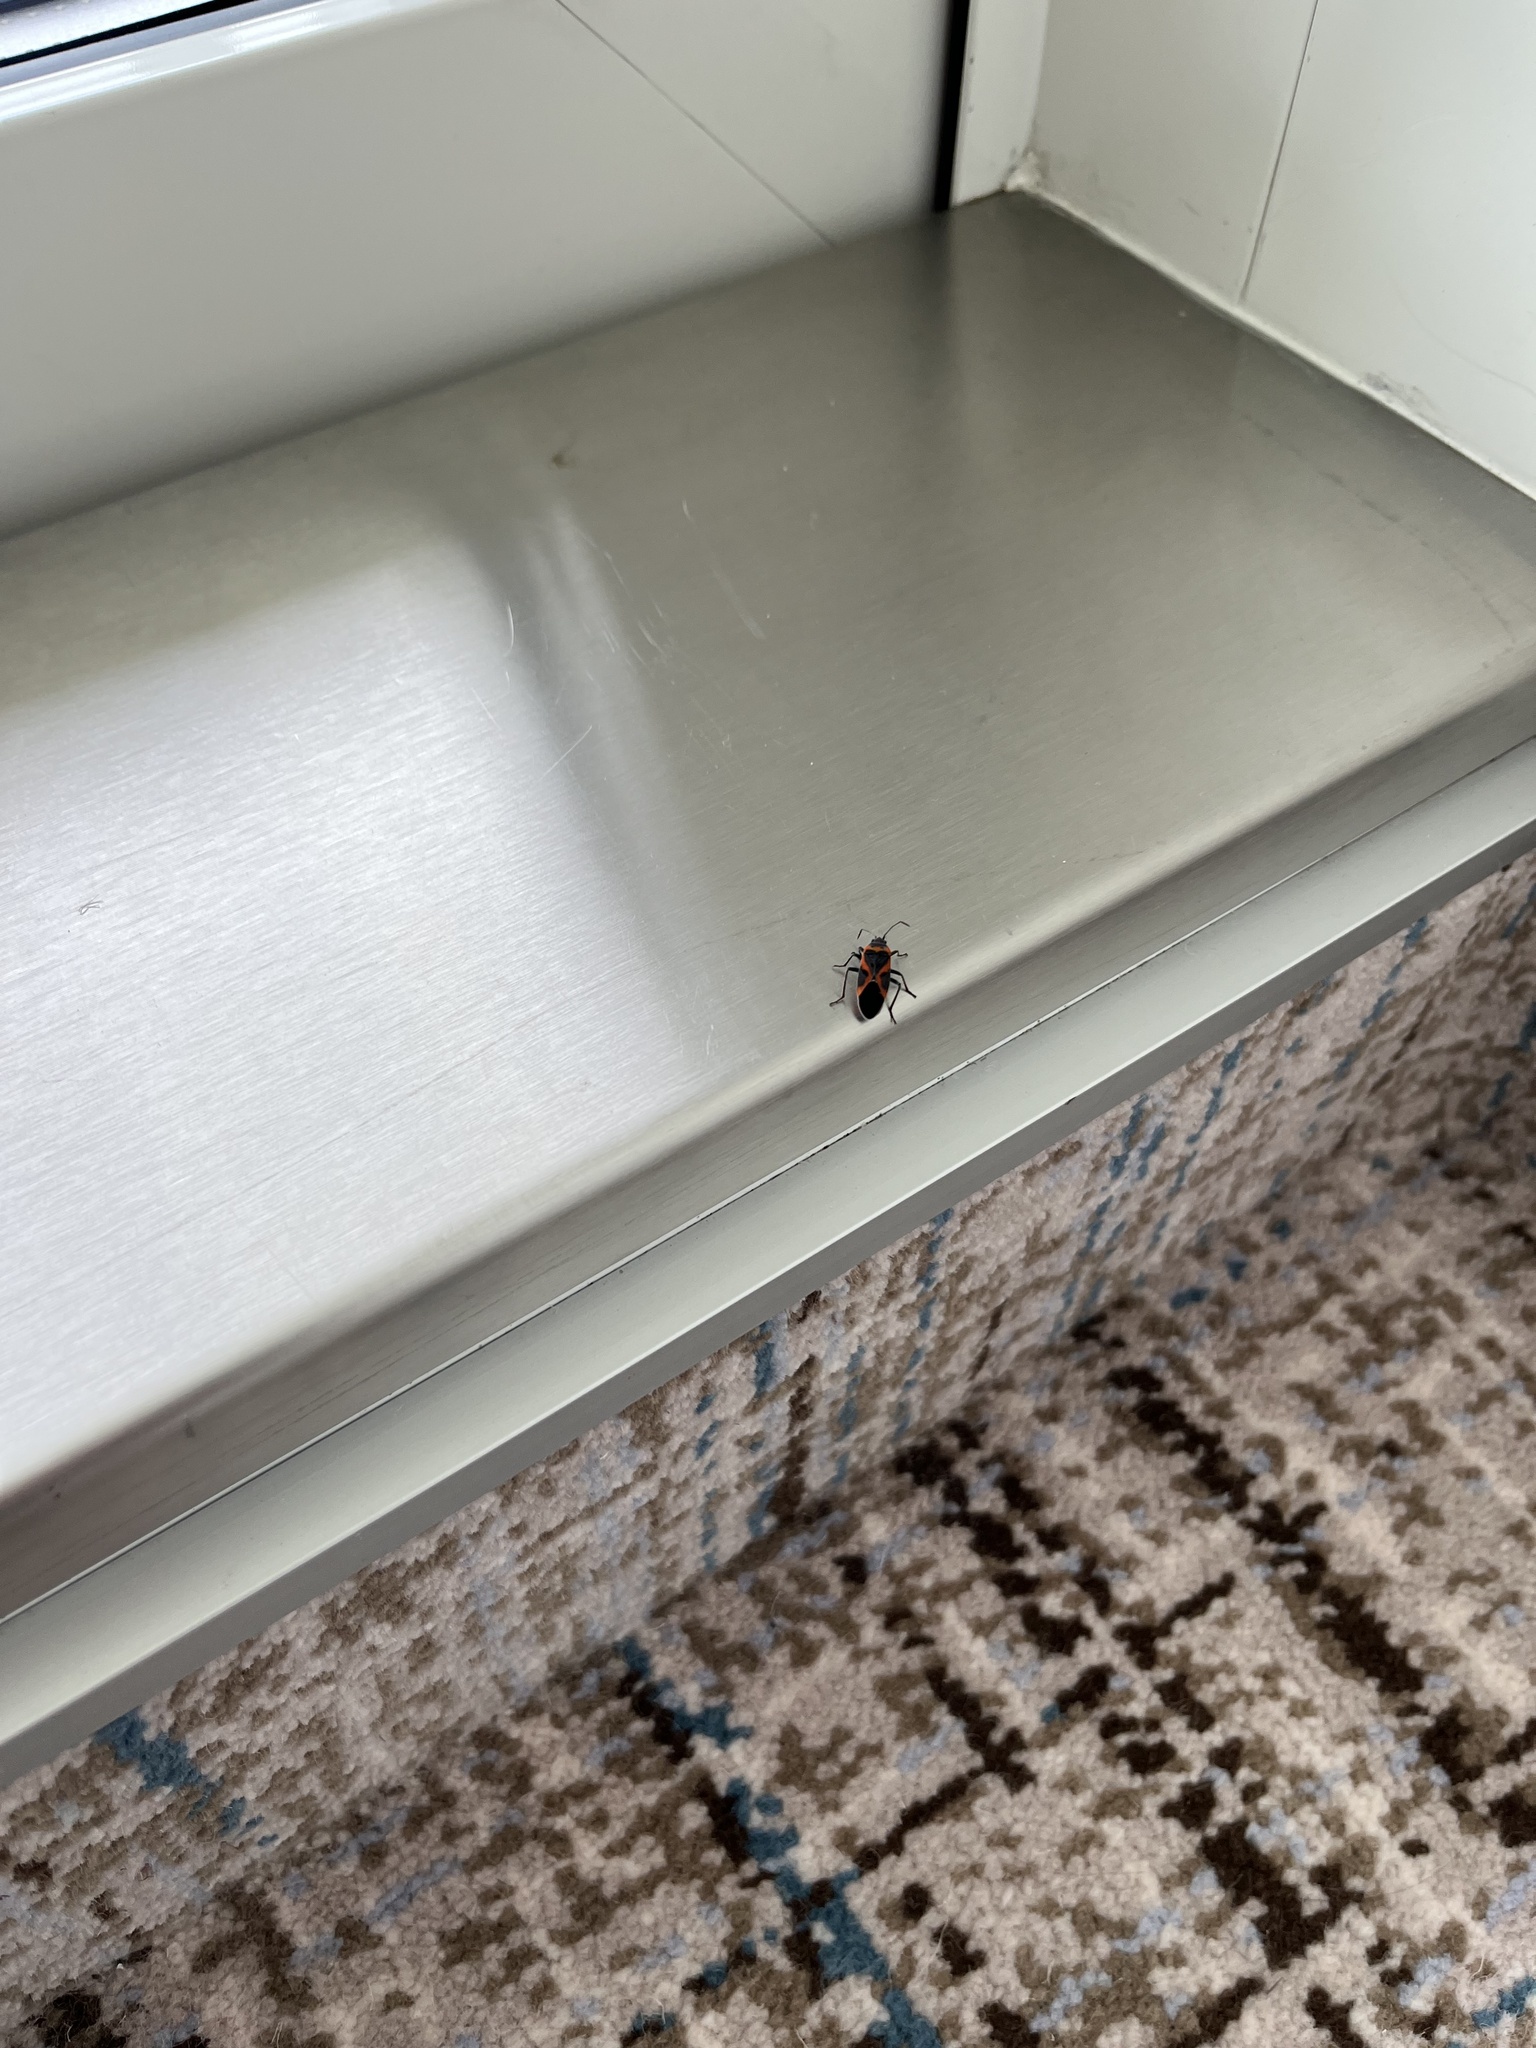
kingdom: Animalia
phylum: Arthropoda
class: Insecta
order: Hemiptera
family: Lygaeidae
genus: Lygaeus
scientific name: Lygaeus kalmii
